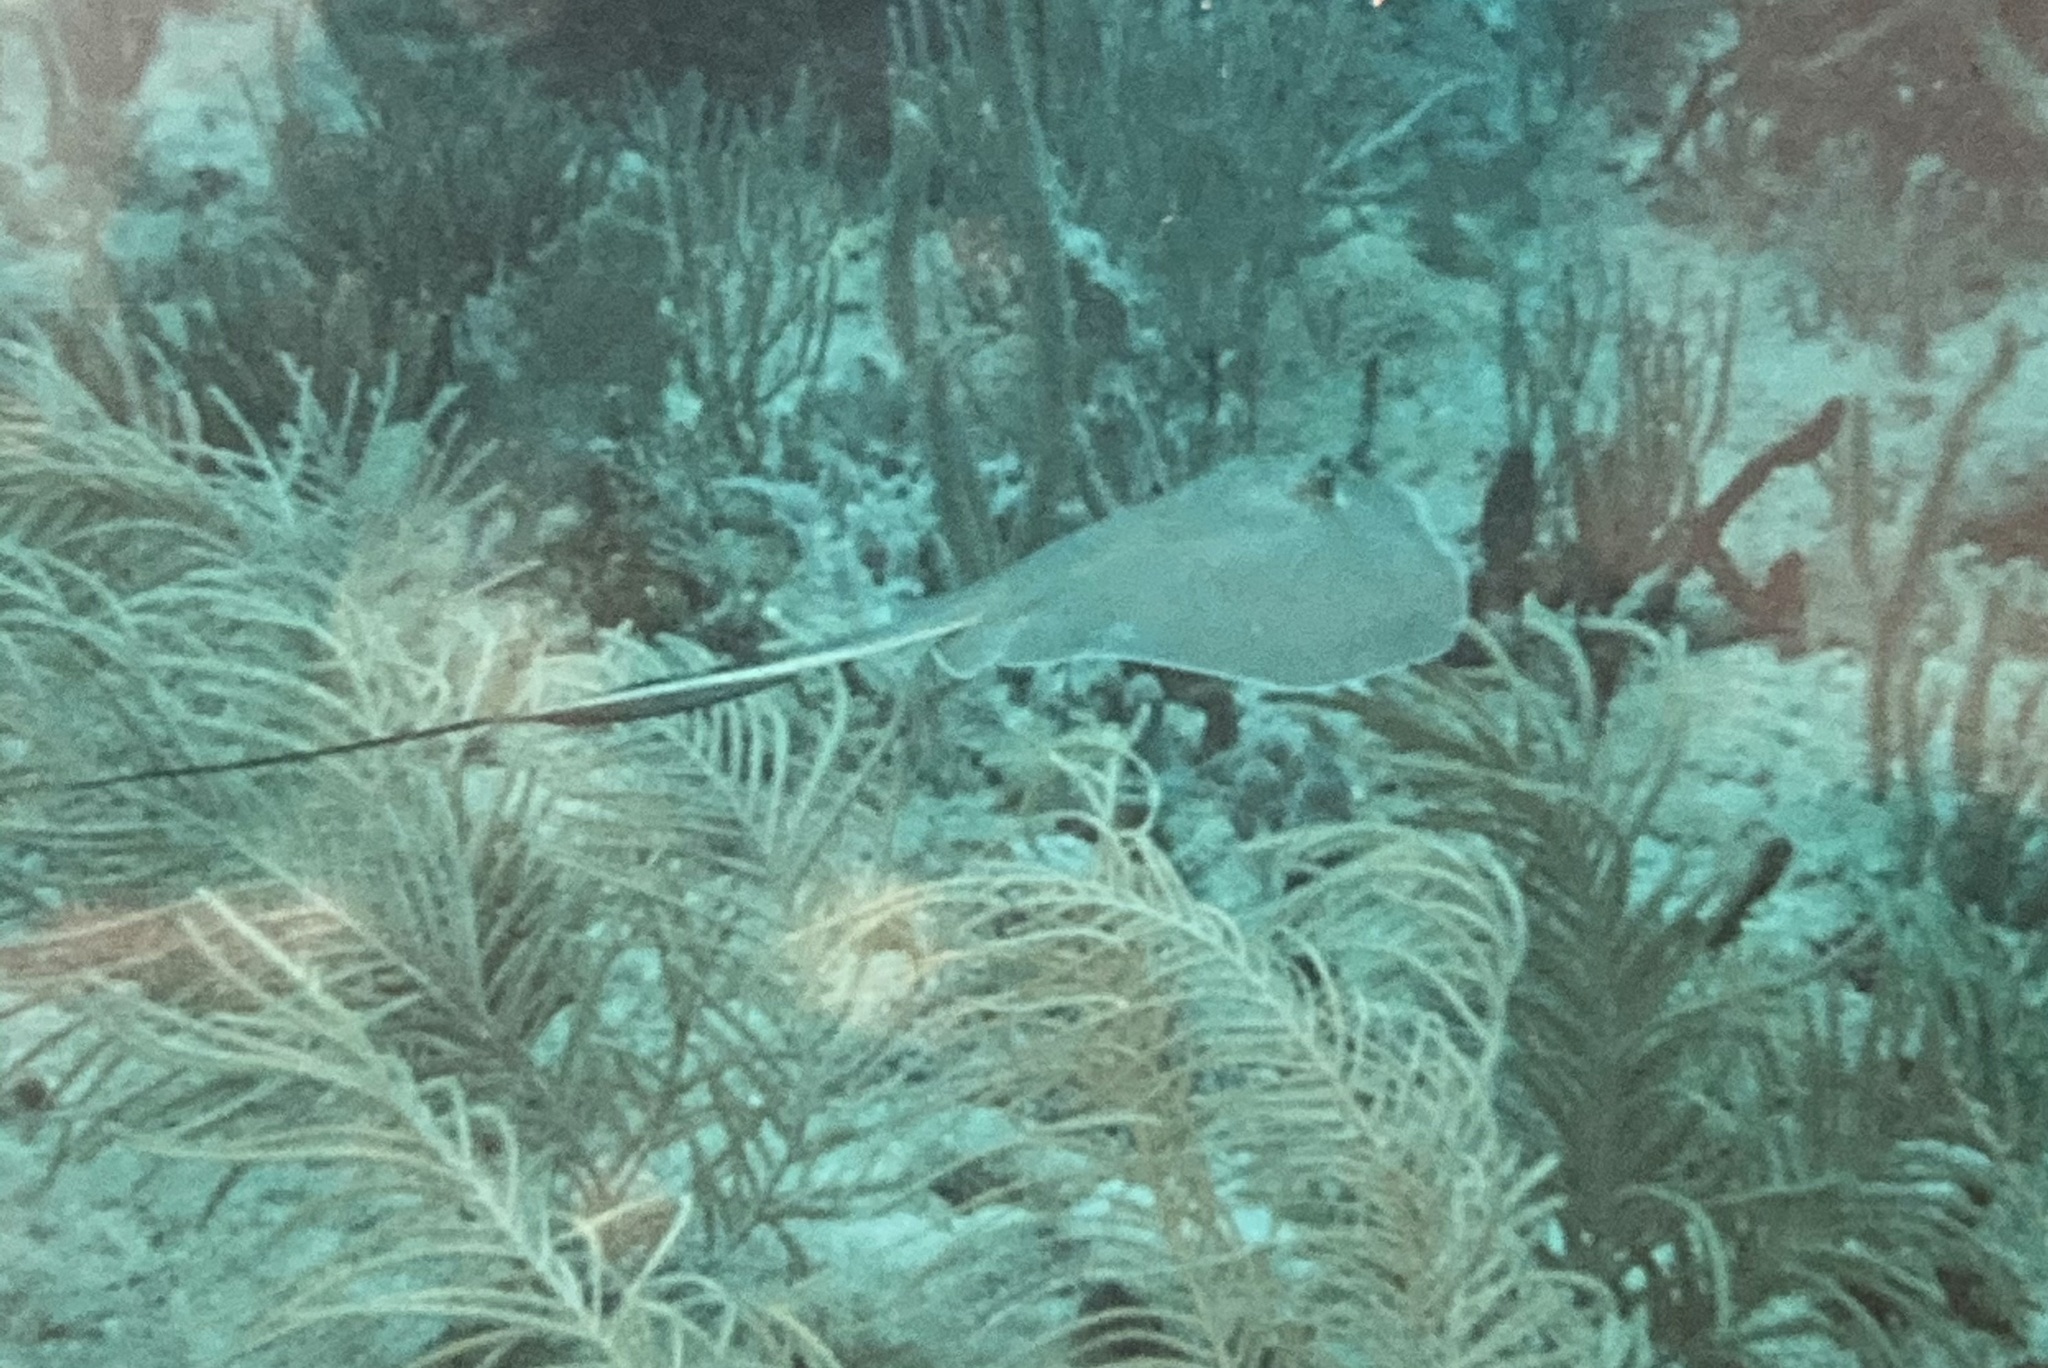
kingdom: Animalia
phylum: Chordata
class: Elasmobranchii
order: Myliobatiformes
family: Dasyatidae
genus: Hypanus
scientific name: Hypanus americanus
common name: Southern stingray
